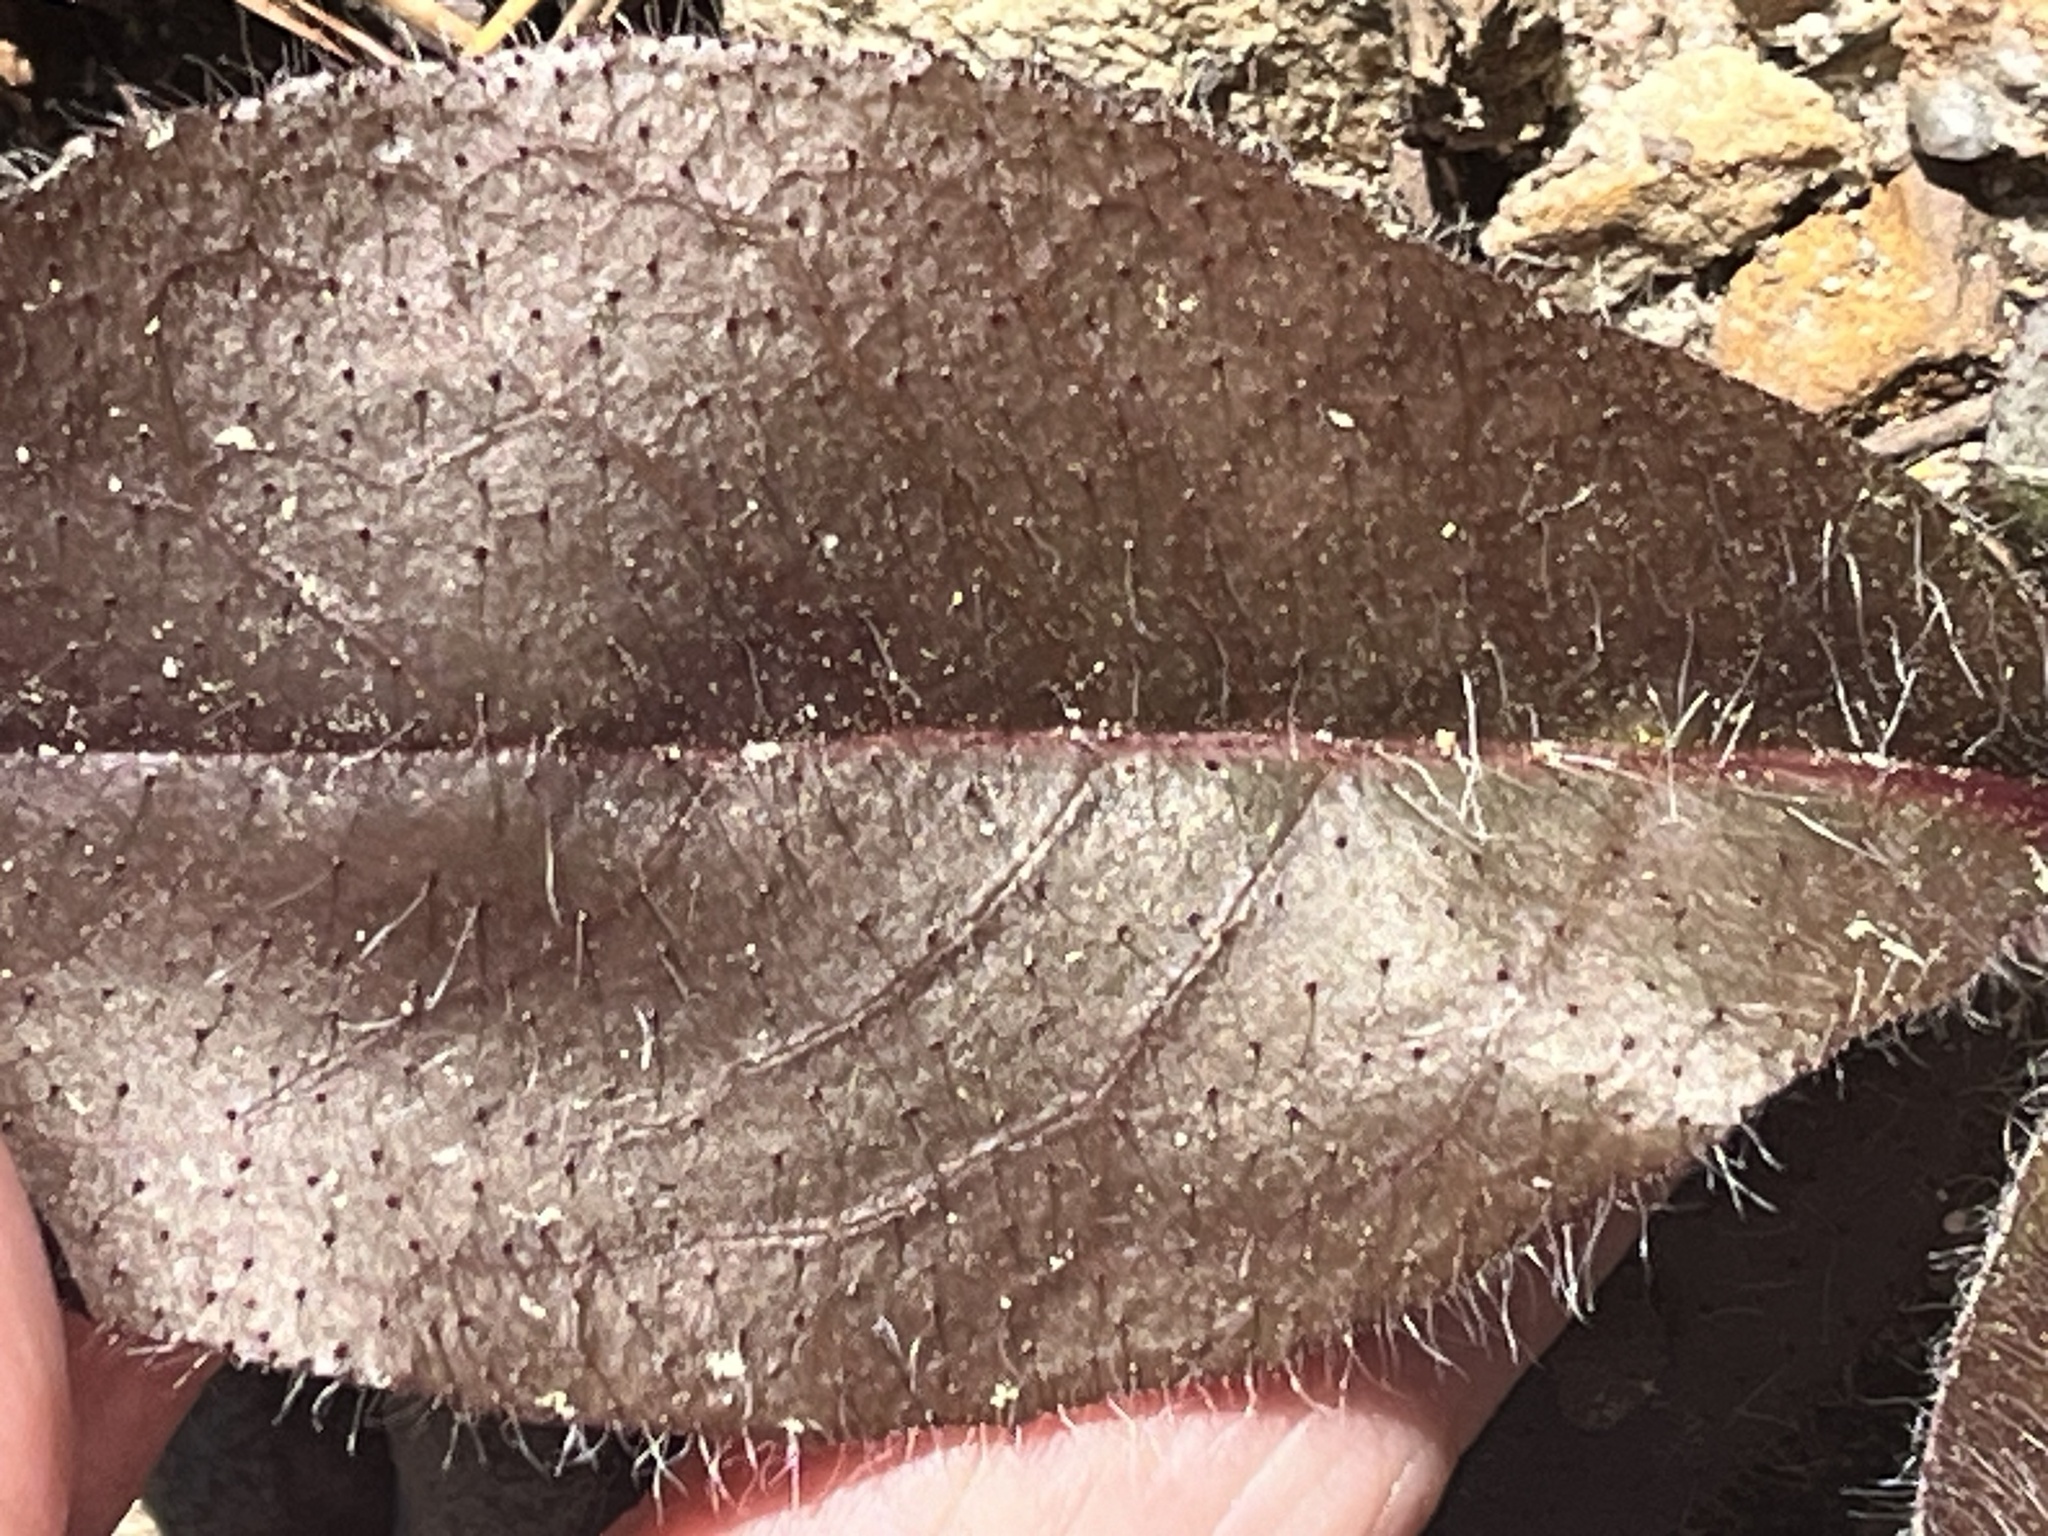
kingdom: Plantae
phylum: Tracheophyta
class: Magnoliopsida
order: Asterales
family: Asteraceae
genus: Hieracium
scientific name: Hieracium gronovii
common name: Beaked hawkweed
